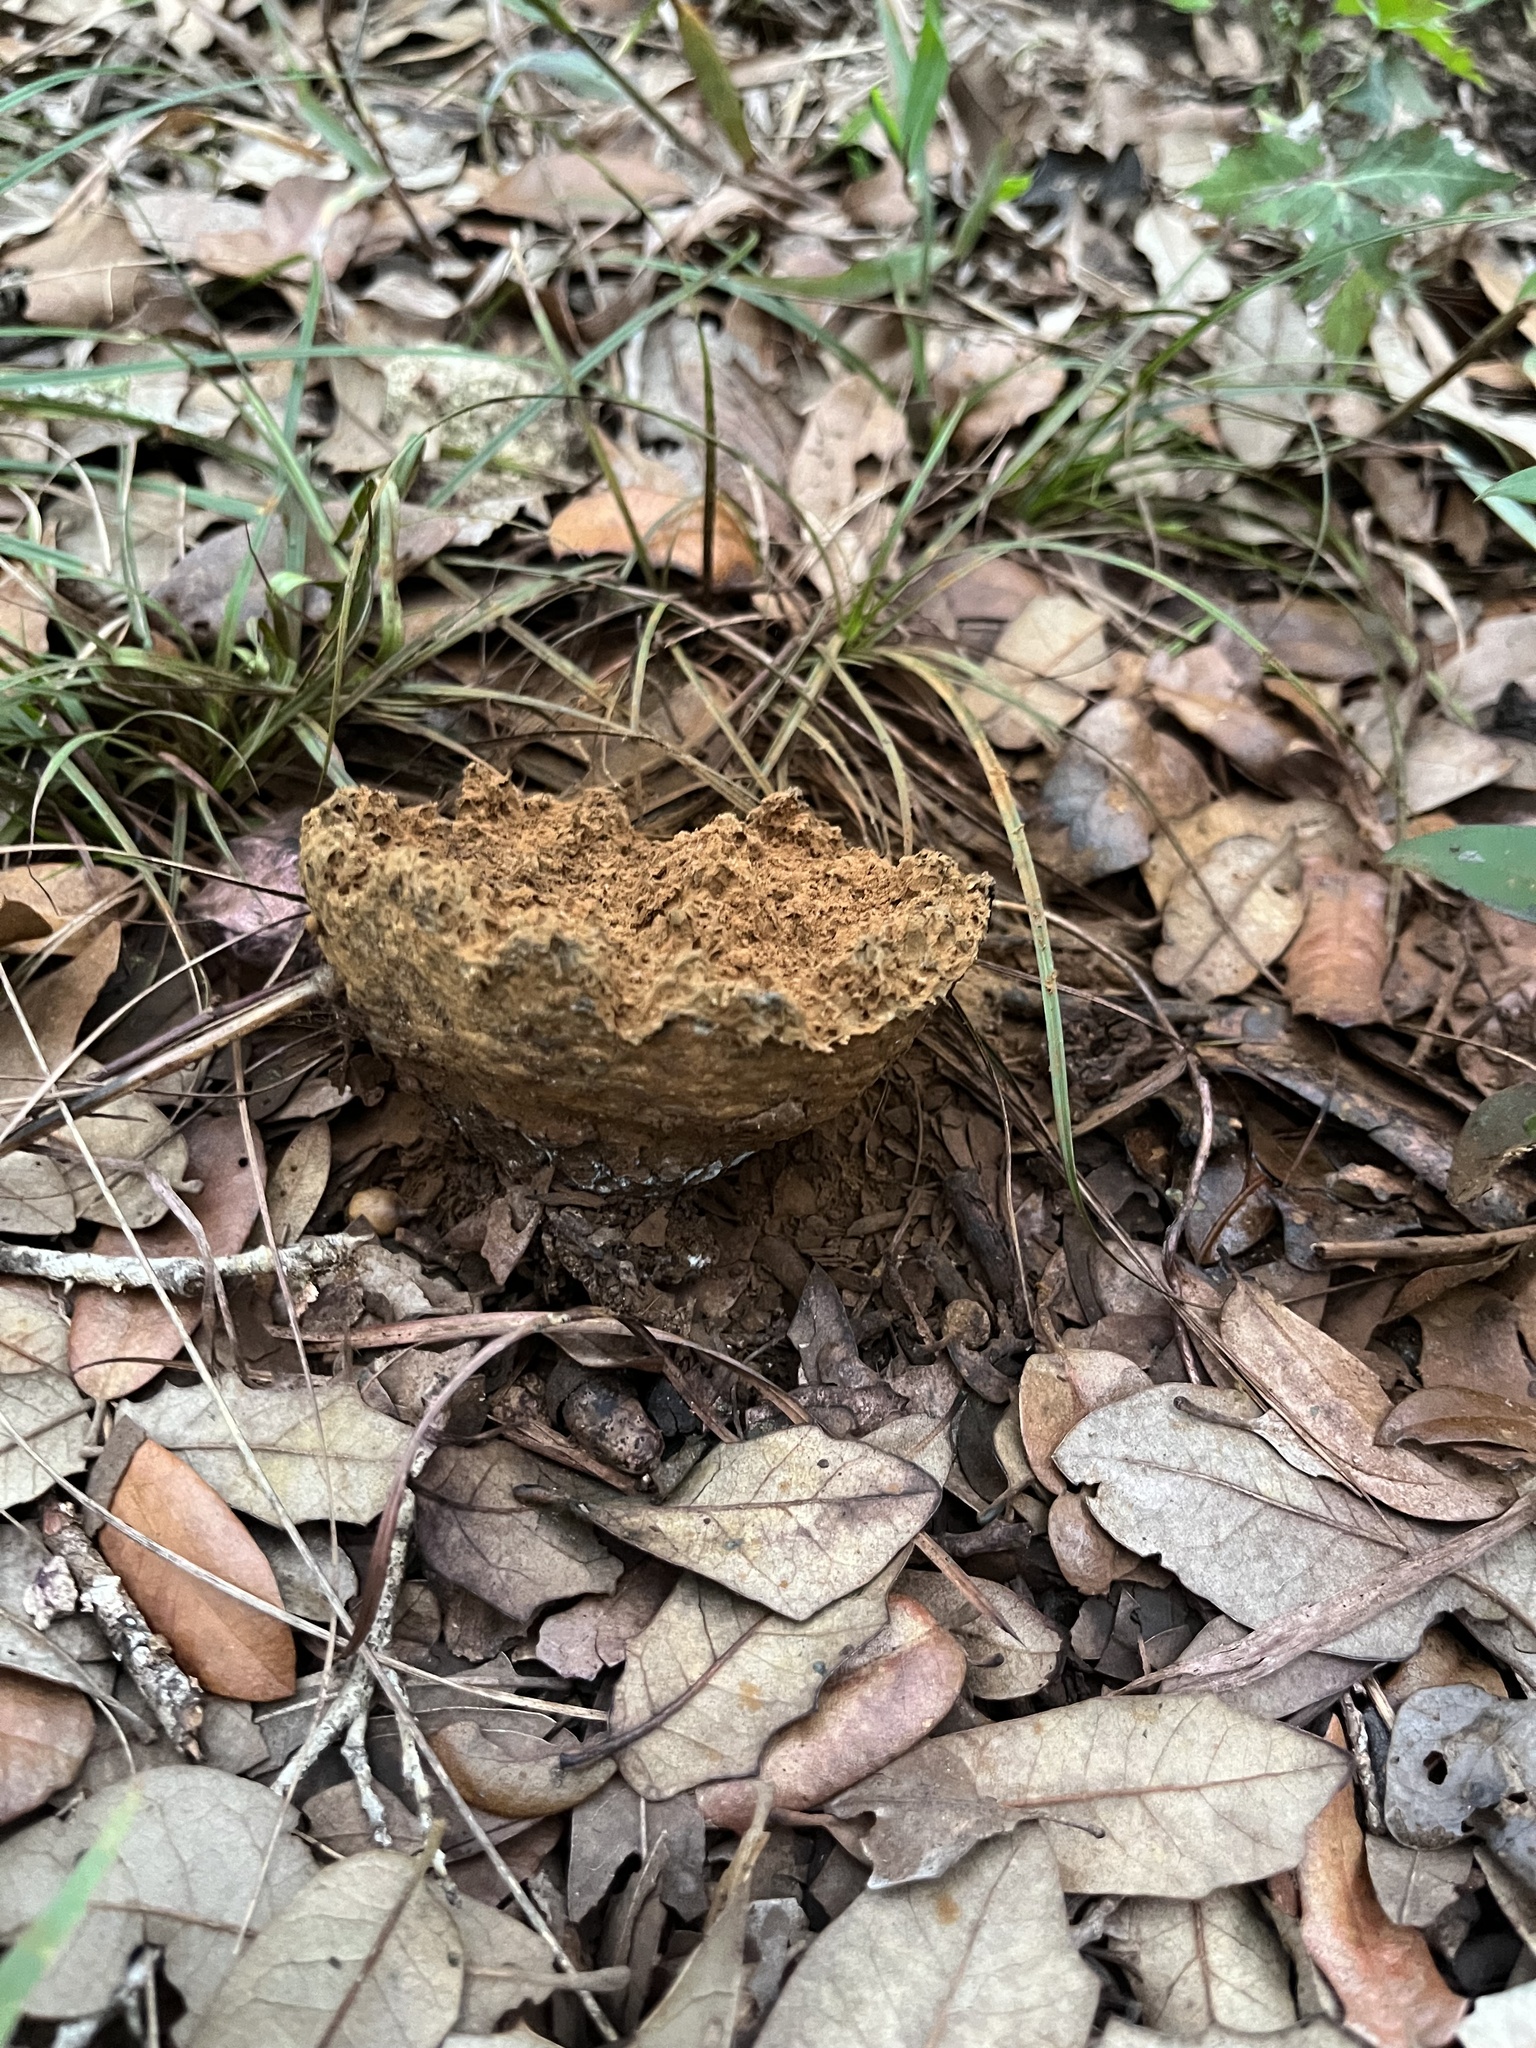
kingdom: Fungi
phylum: Basidiomycota
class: Agaricomycetes
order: Boletales
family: Sclerodermataceae
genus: Pisolithus
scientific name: Pisolithus arenarius
